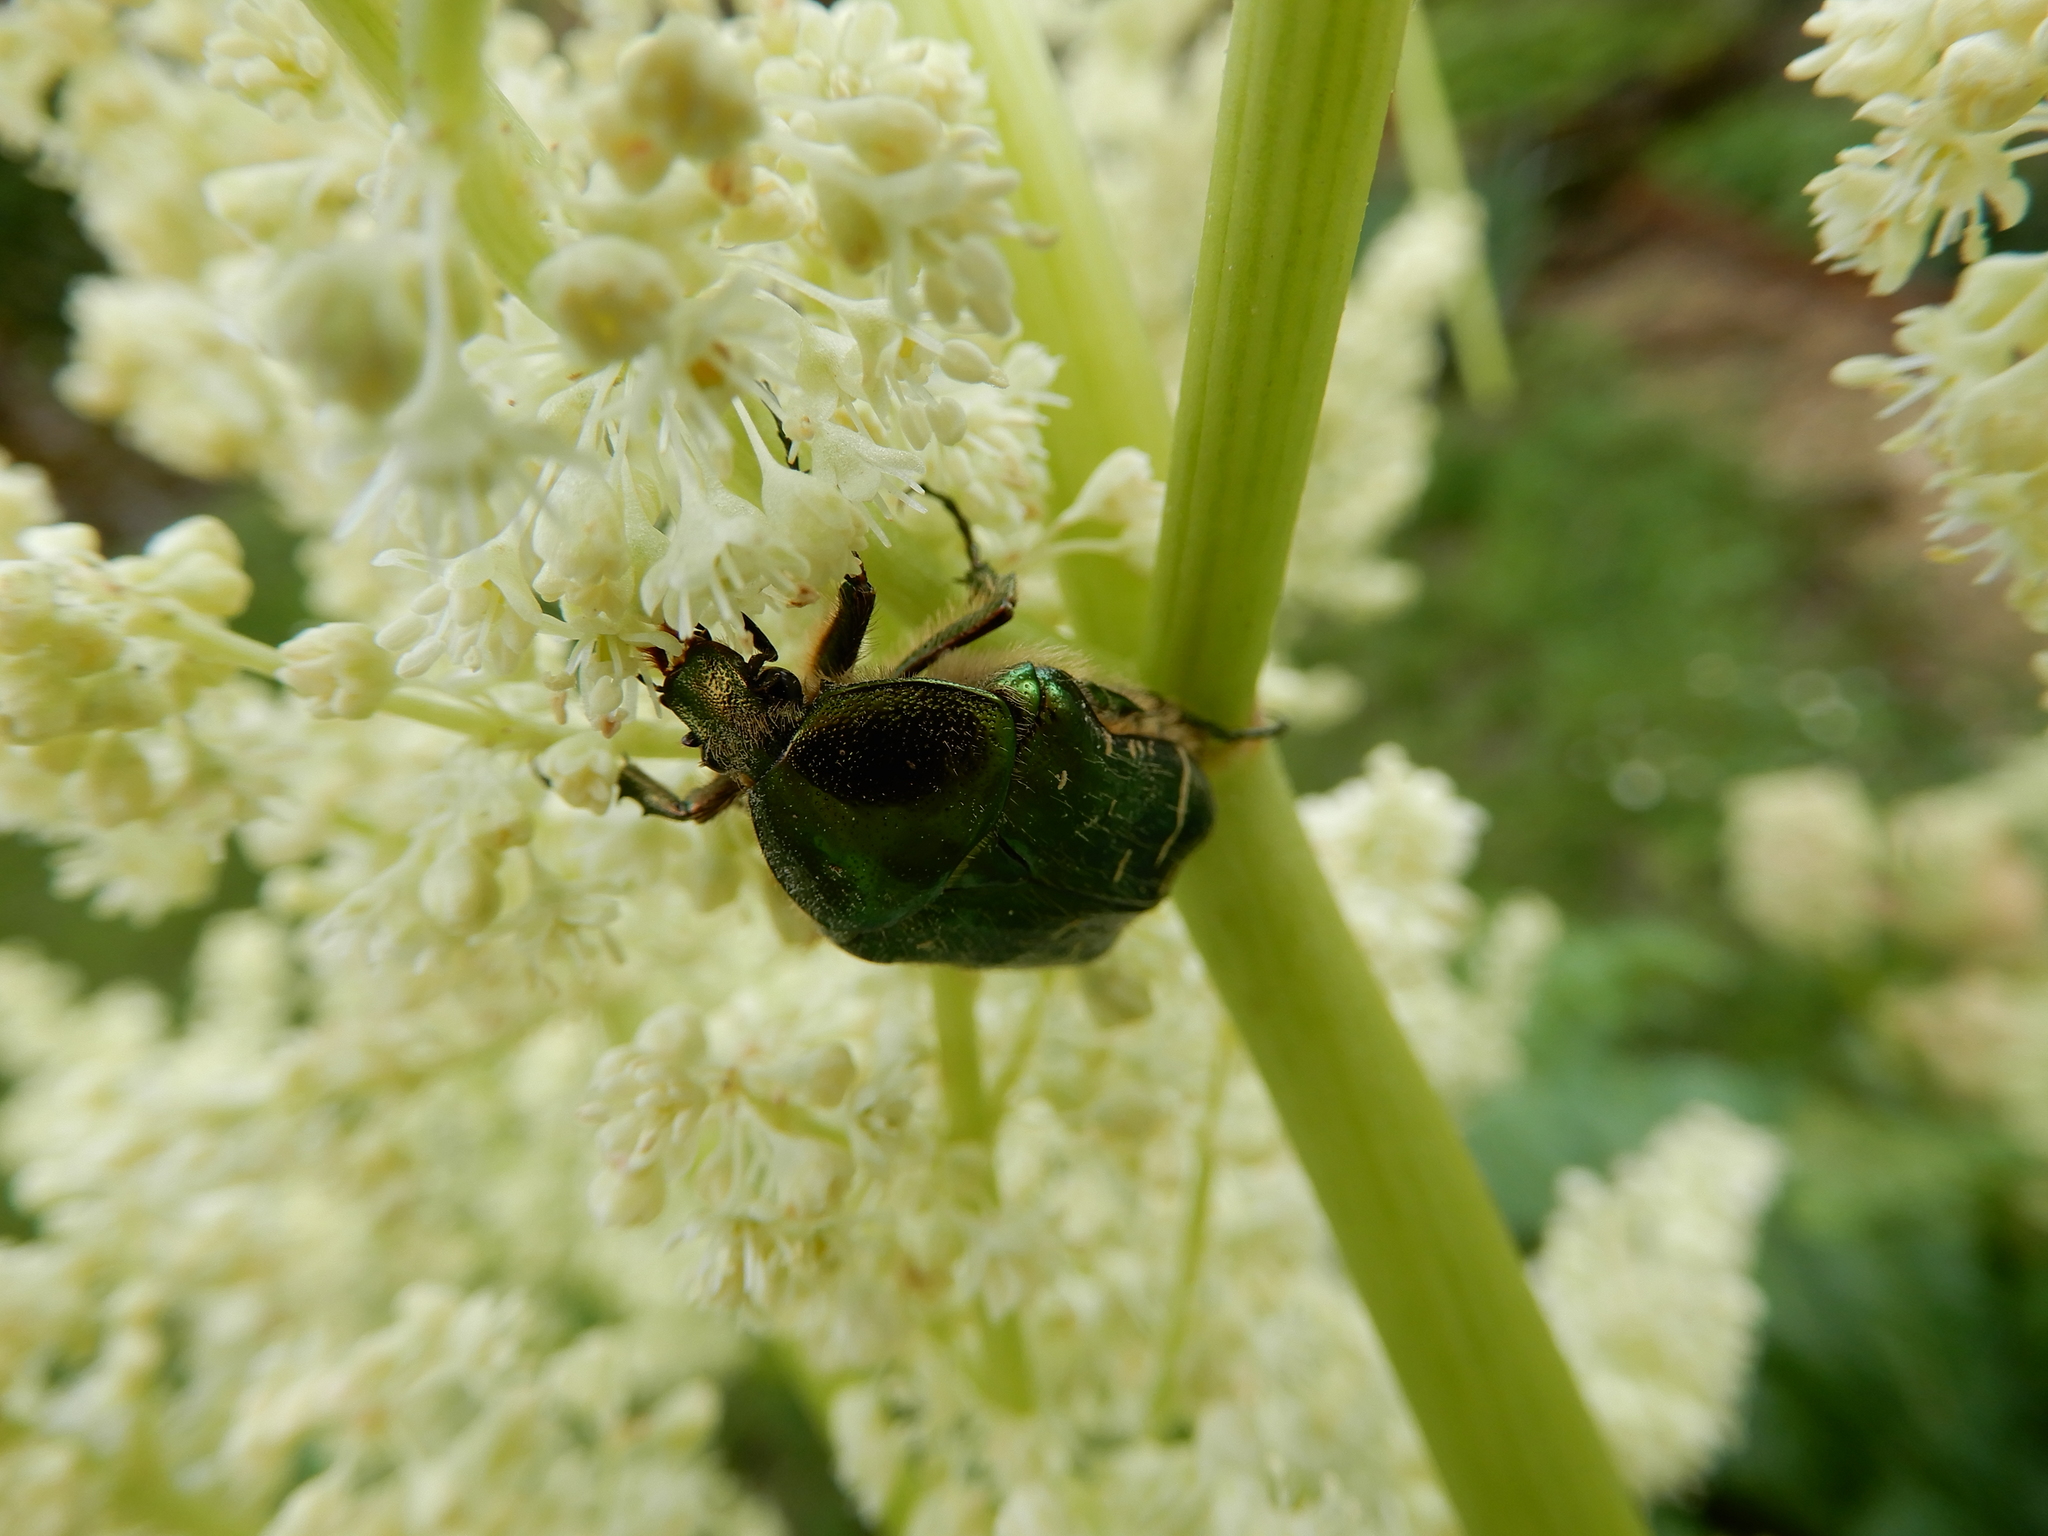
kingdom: Animalia
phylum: Arthropoda
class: Insecta
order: Coleoptera
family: Scarabaeidae
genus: Cetonia
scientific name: Cetonia aurata
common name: Rose chafer
